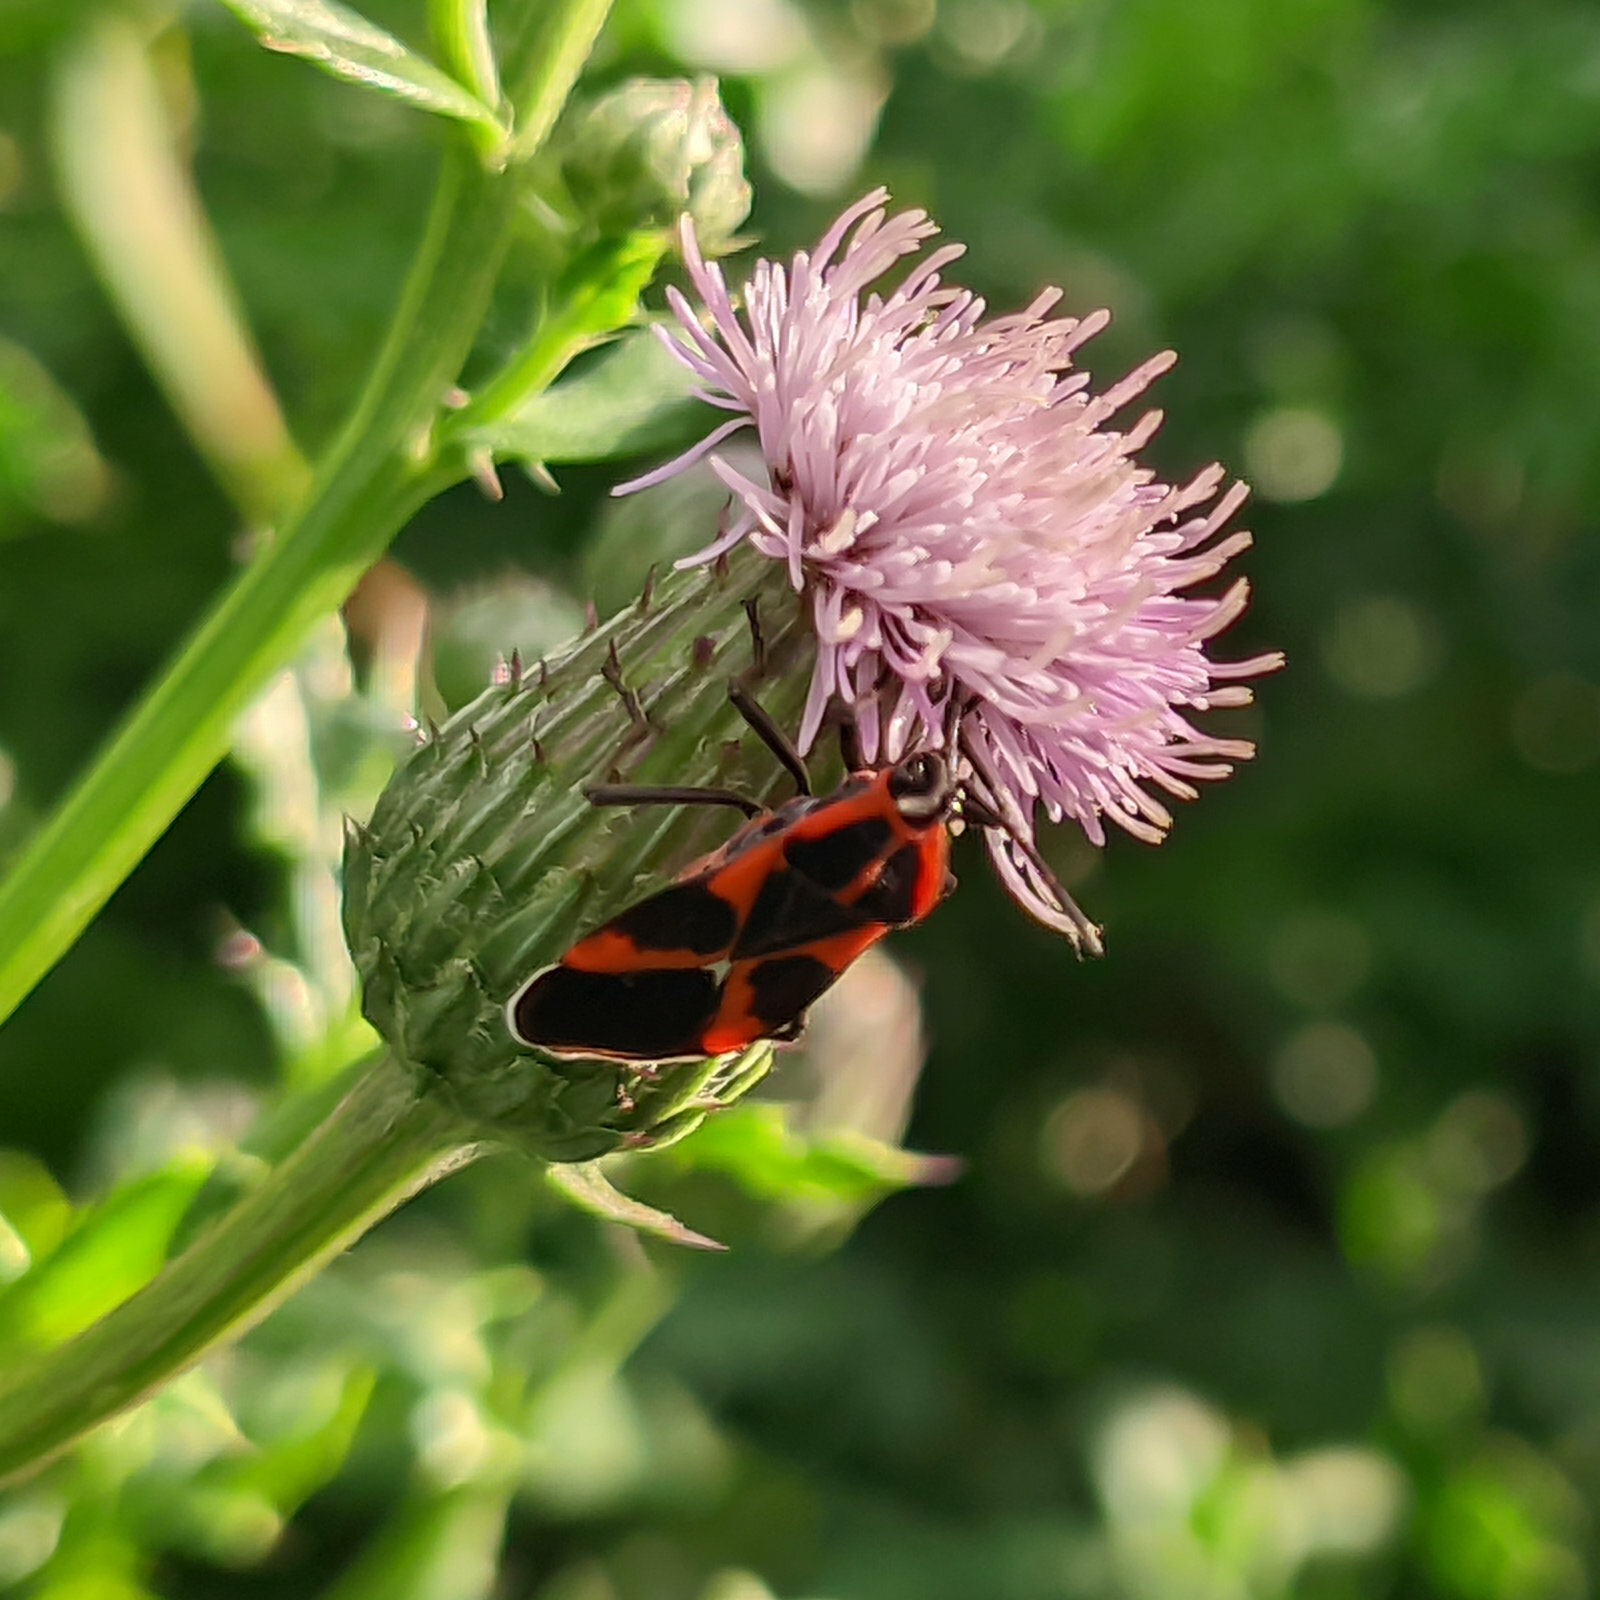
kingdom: Animalia
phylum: Arthropoda
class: Insecta
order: Hemiptera
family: Lygaeidae
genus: Tropidothorax
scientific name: Tropidothorax leucopterus
